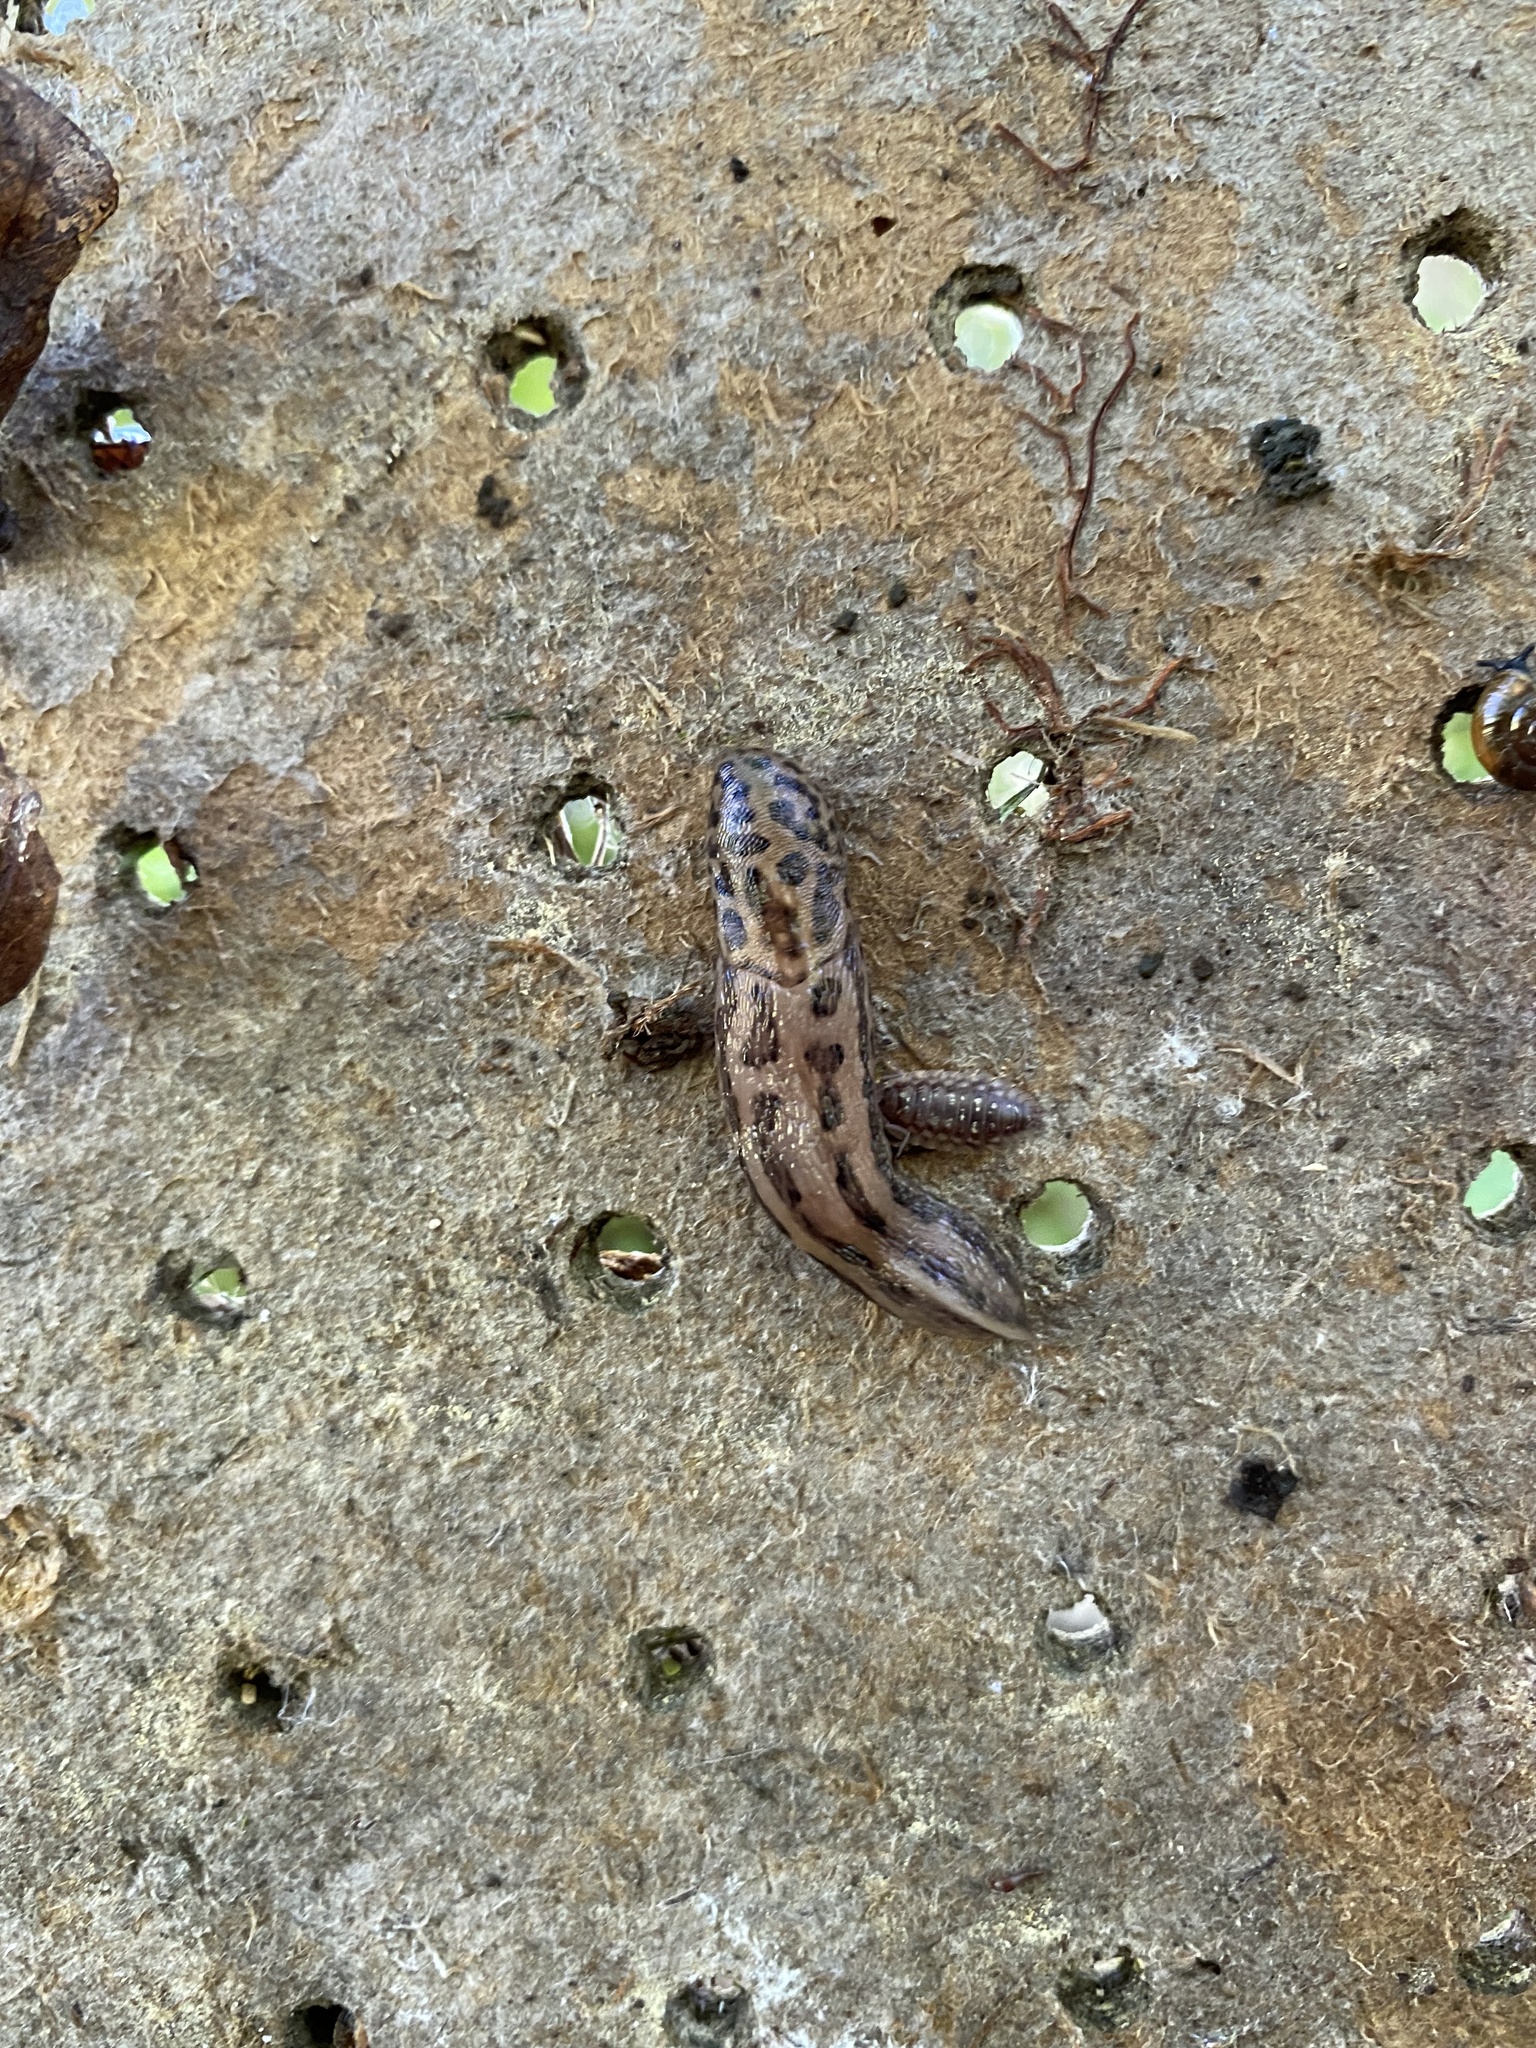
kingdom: Animalia
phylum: Mollusca
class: Gastropoda
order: Stylommatophora
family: Limacidae
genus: Limax
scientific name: Limax maximus
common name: Great grey slug
